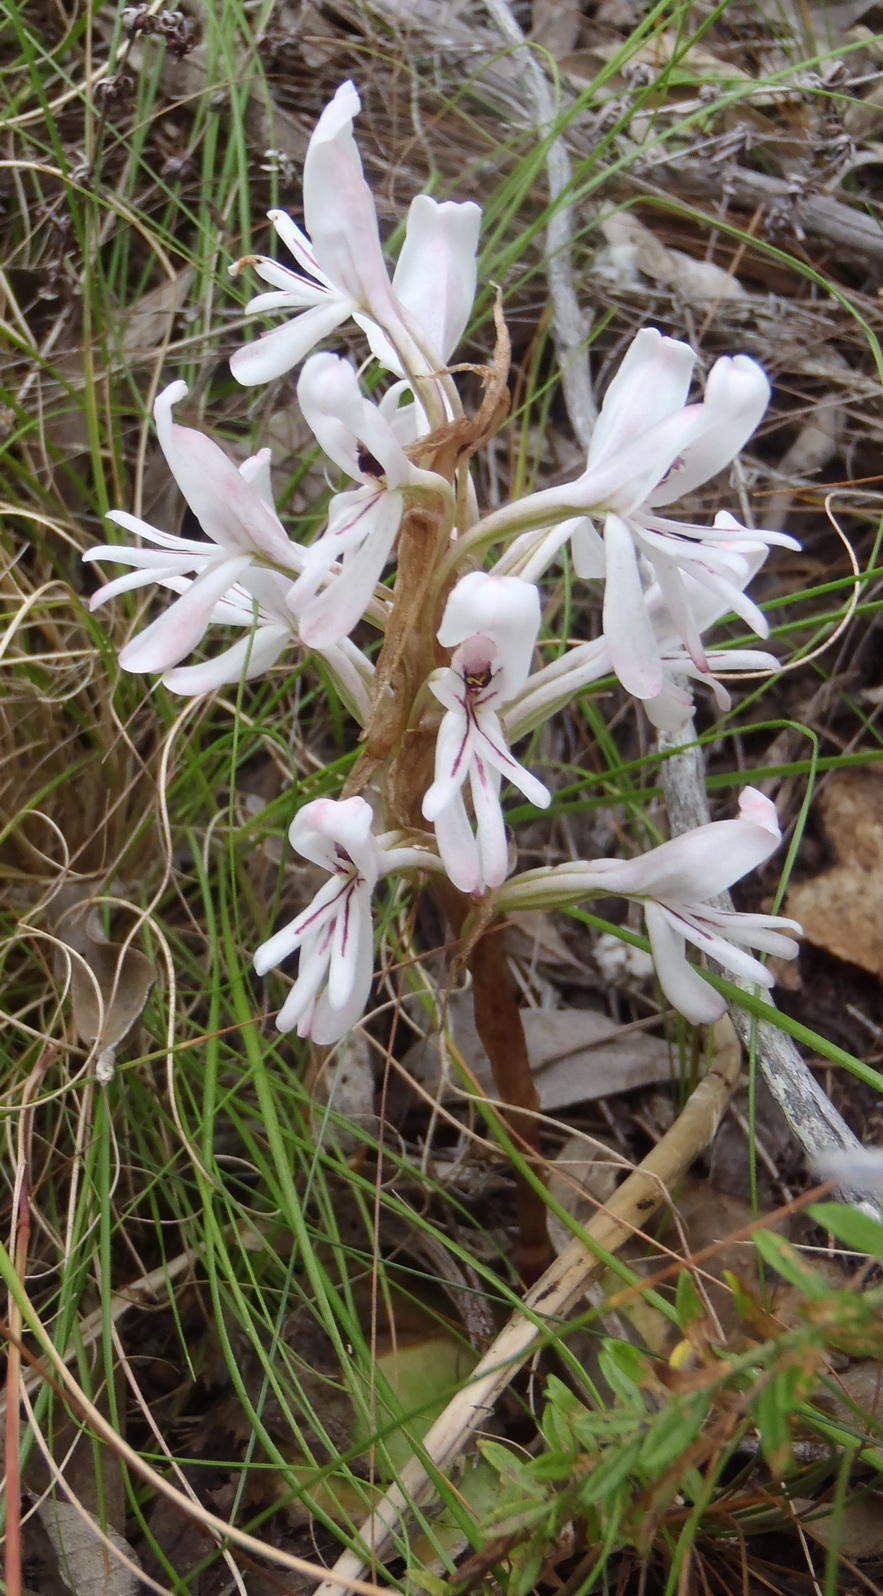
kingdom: Plantae
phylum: Tracheophyta
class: Liliopsida
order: Asparagales
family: Orchidaceae
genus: Satyrium
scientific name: Satyrium longicolle
